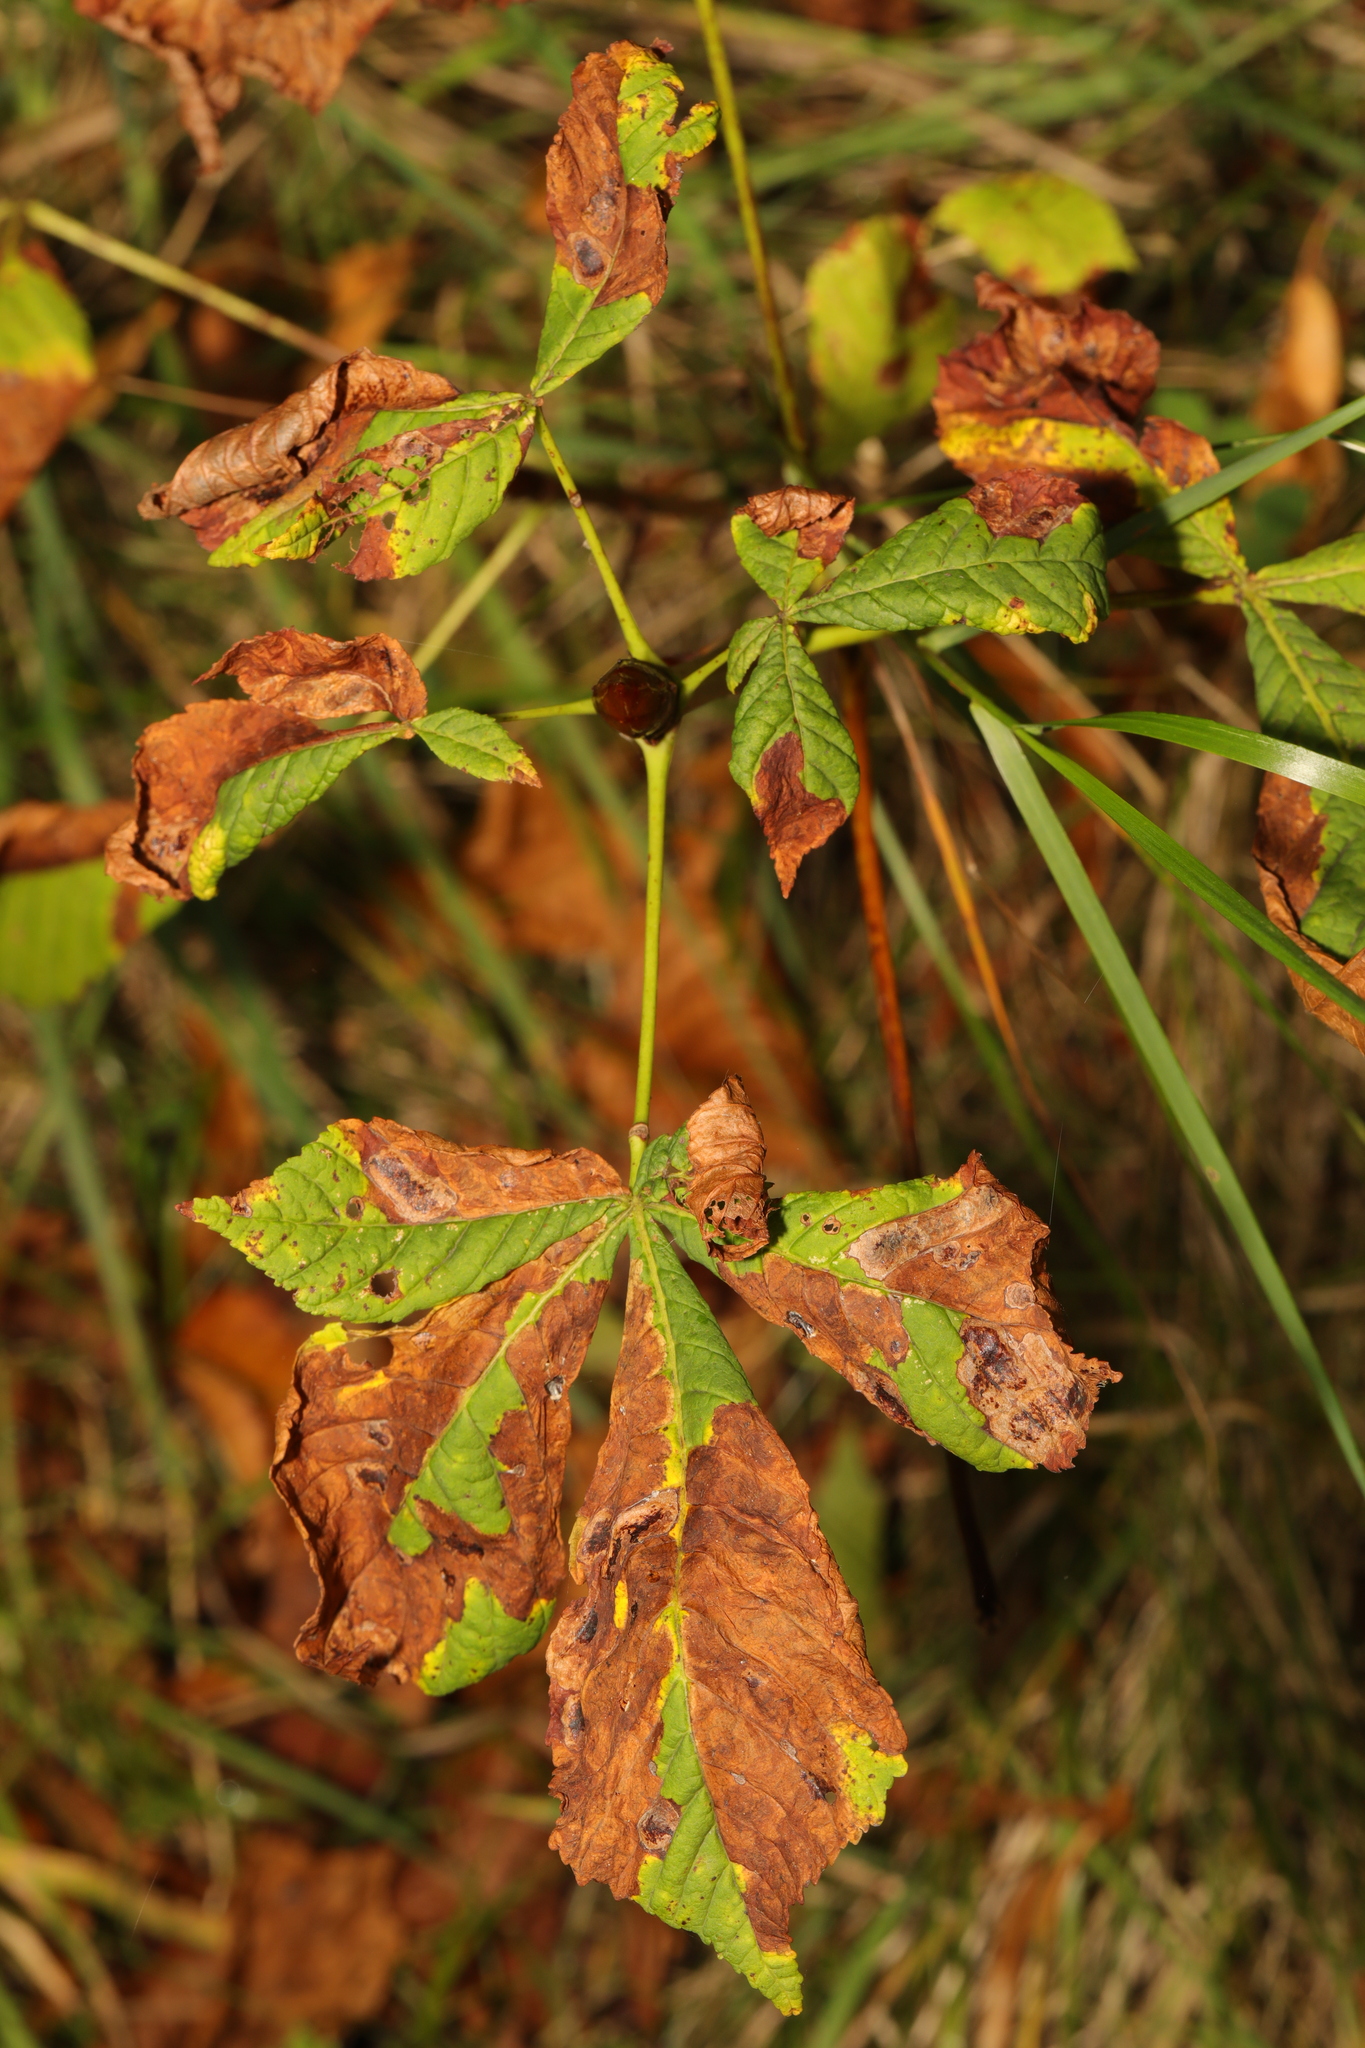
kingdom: Plantae
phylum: Tracheophyta
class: Magnoliopsida
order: Sapindales
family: Sapindaceae
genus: Aesculus
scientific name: Aesculus hippocastanum
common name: Horse-chestnut
